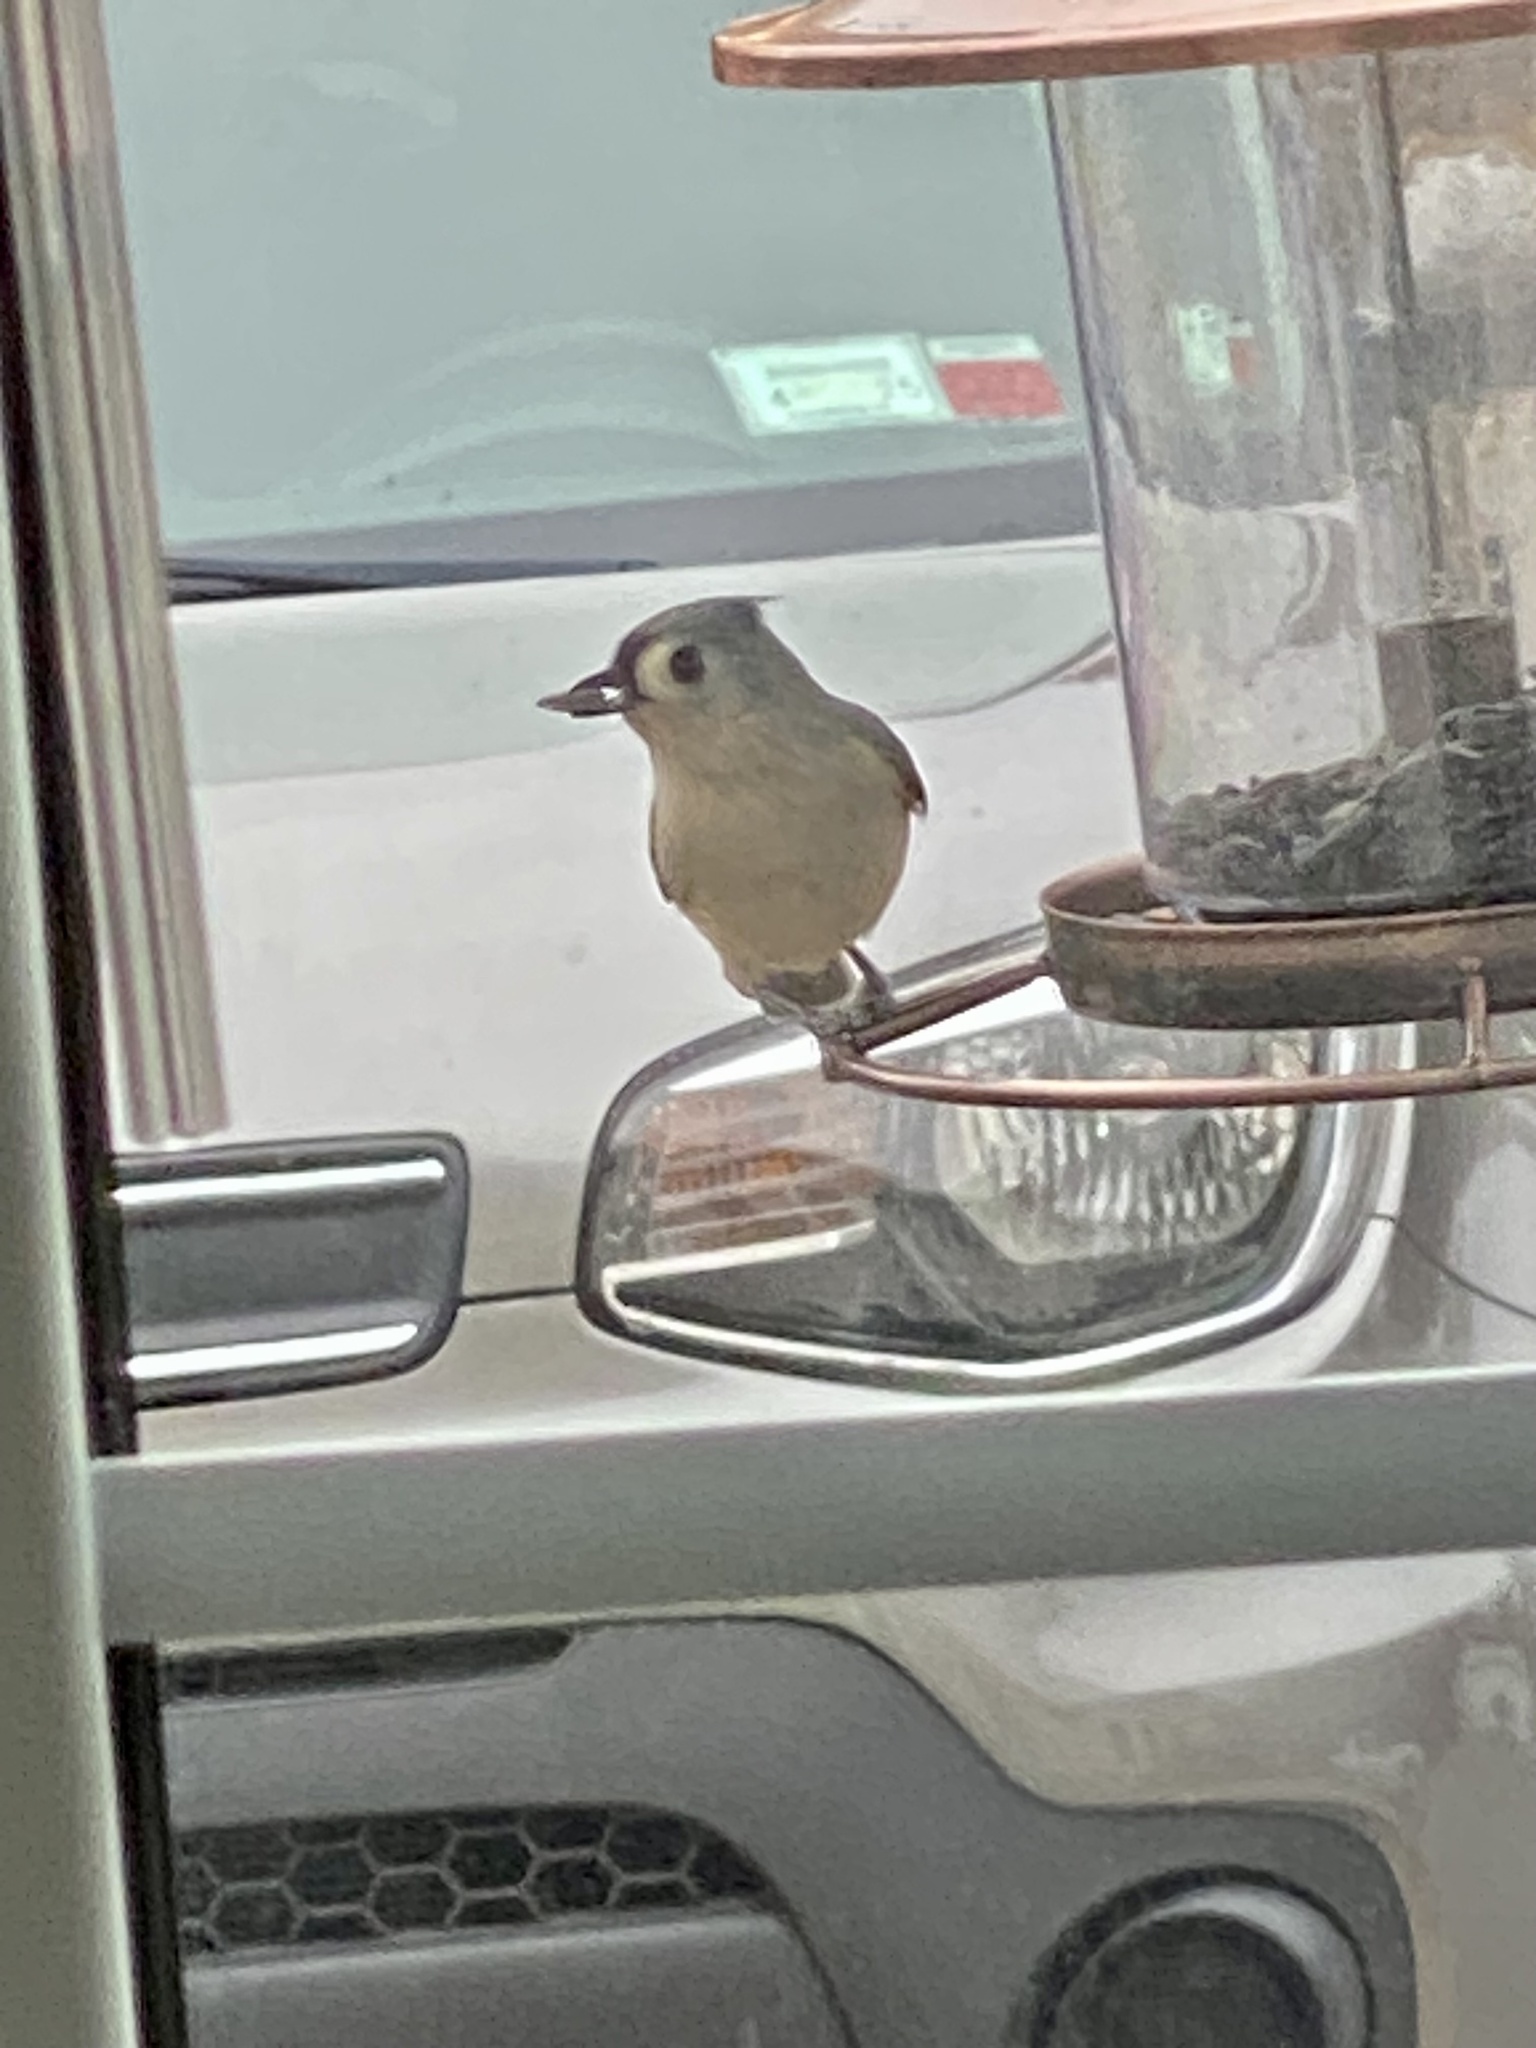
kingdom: Animalia
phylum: Chordata
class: Aves
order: Passeriformes
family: Paridae
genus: Baeolophus
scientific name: Baeolophus bicolor
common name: Tufted titmouse
